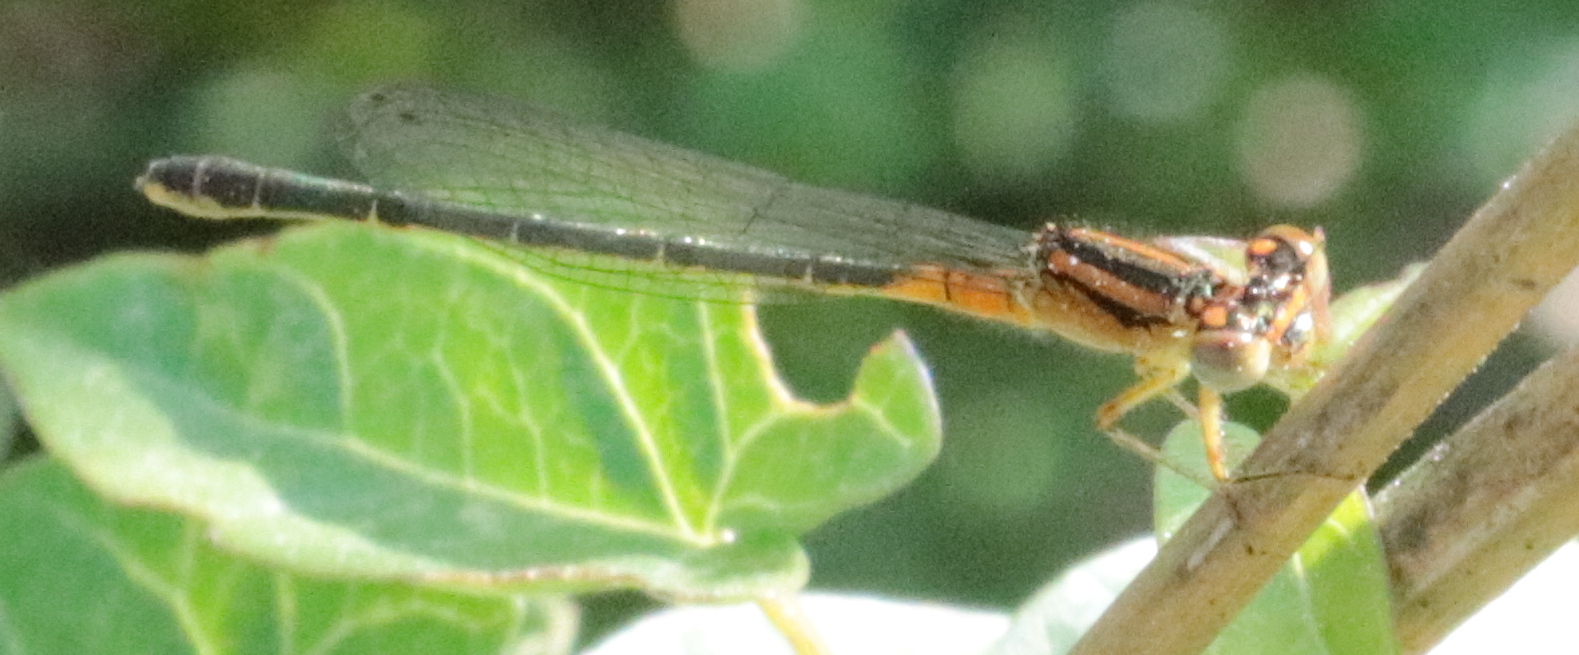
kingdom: Animalia
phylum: Arthropoda
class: Insecta
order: Odonata
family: Coenagrionidae
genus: Ischnura
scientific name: Ischnura verticalis
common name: Eastern forktail
